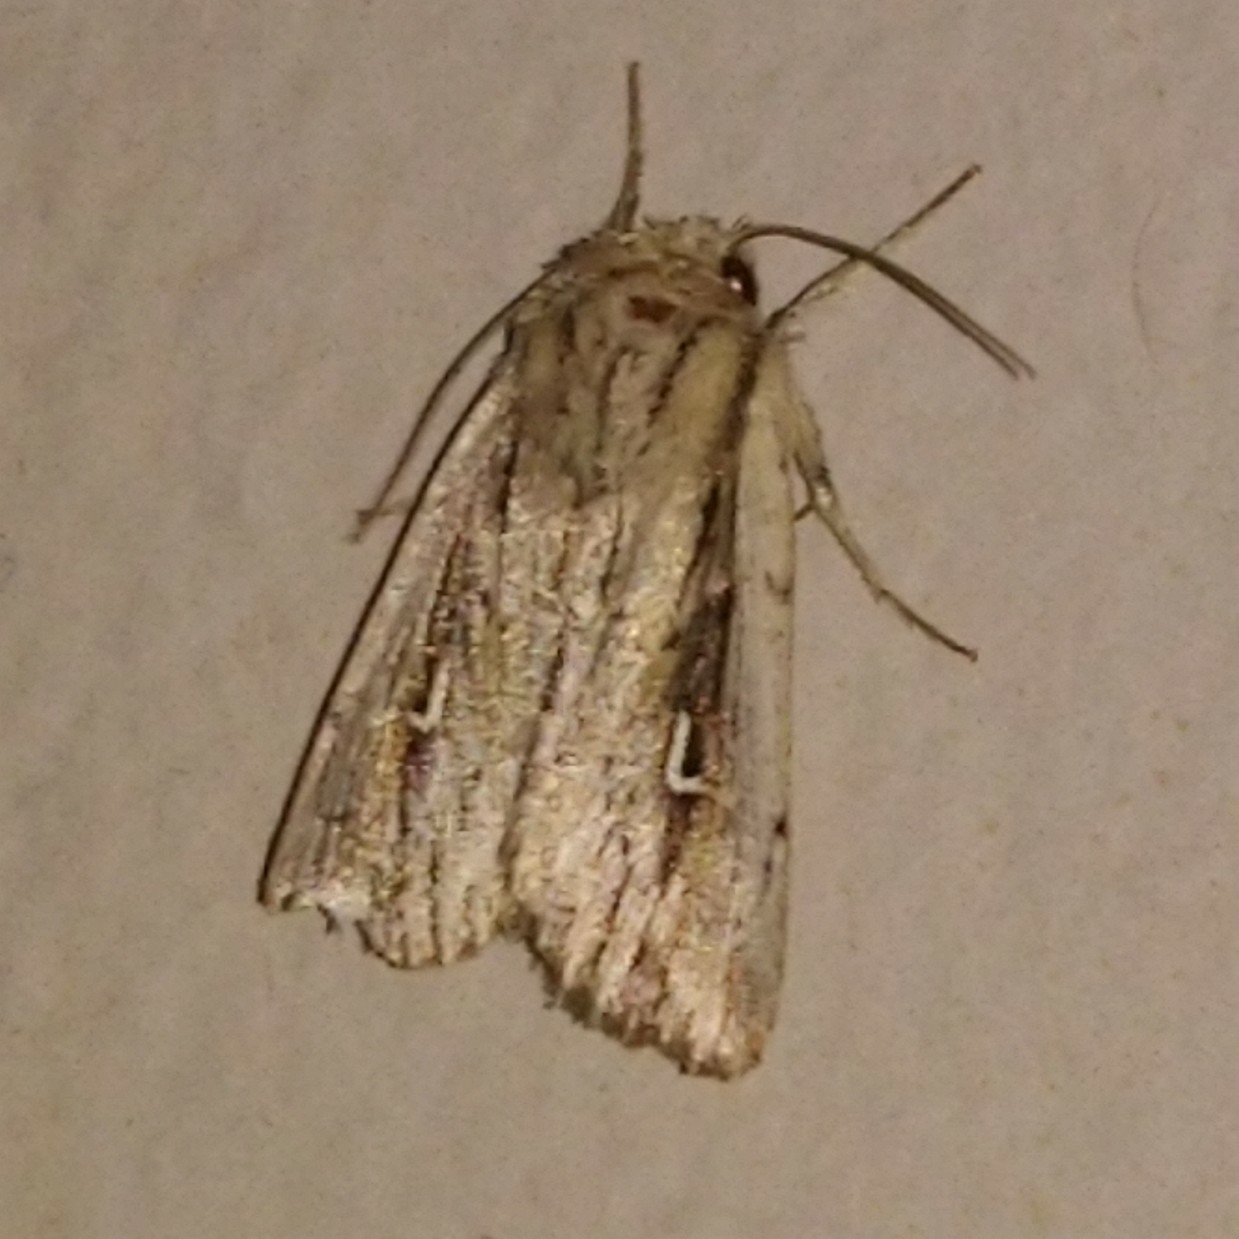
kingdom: Animalia
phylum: Arthropoda
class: Insecta
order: Lepidoptera
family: Noctuidae
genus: Mythimna
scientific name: Mythimna corax
